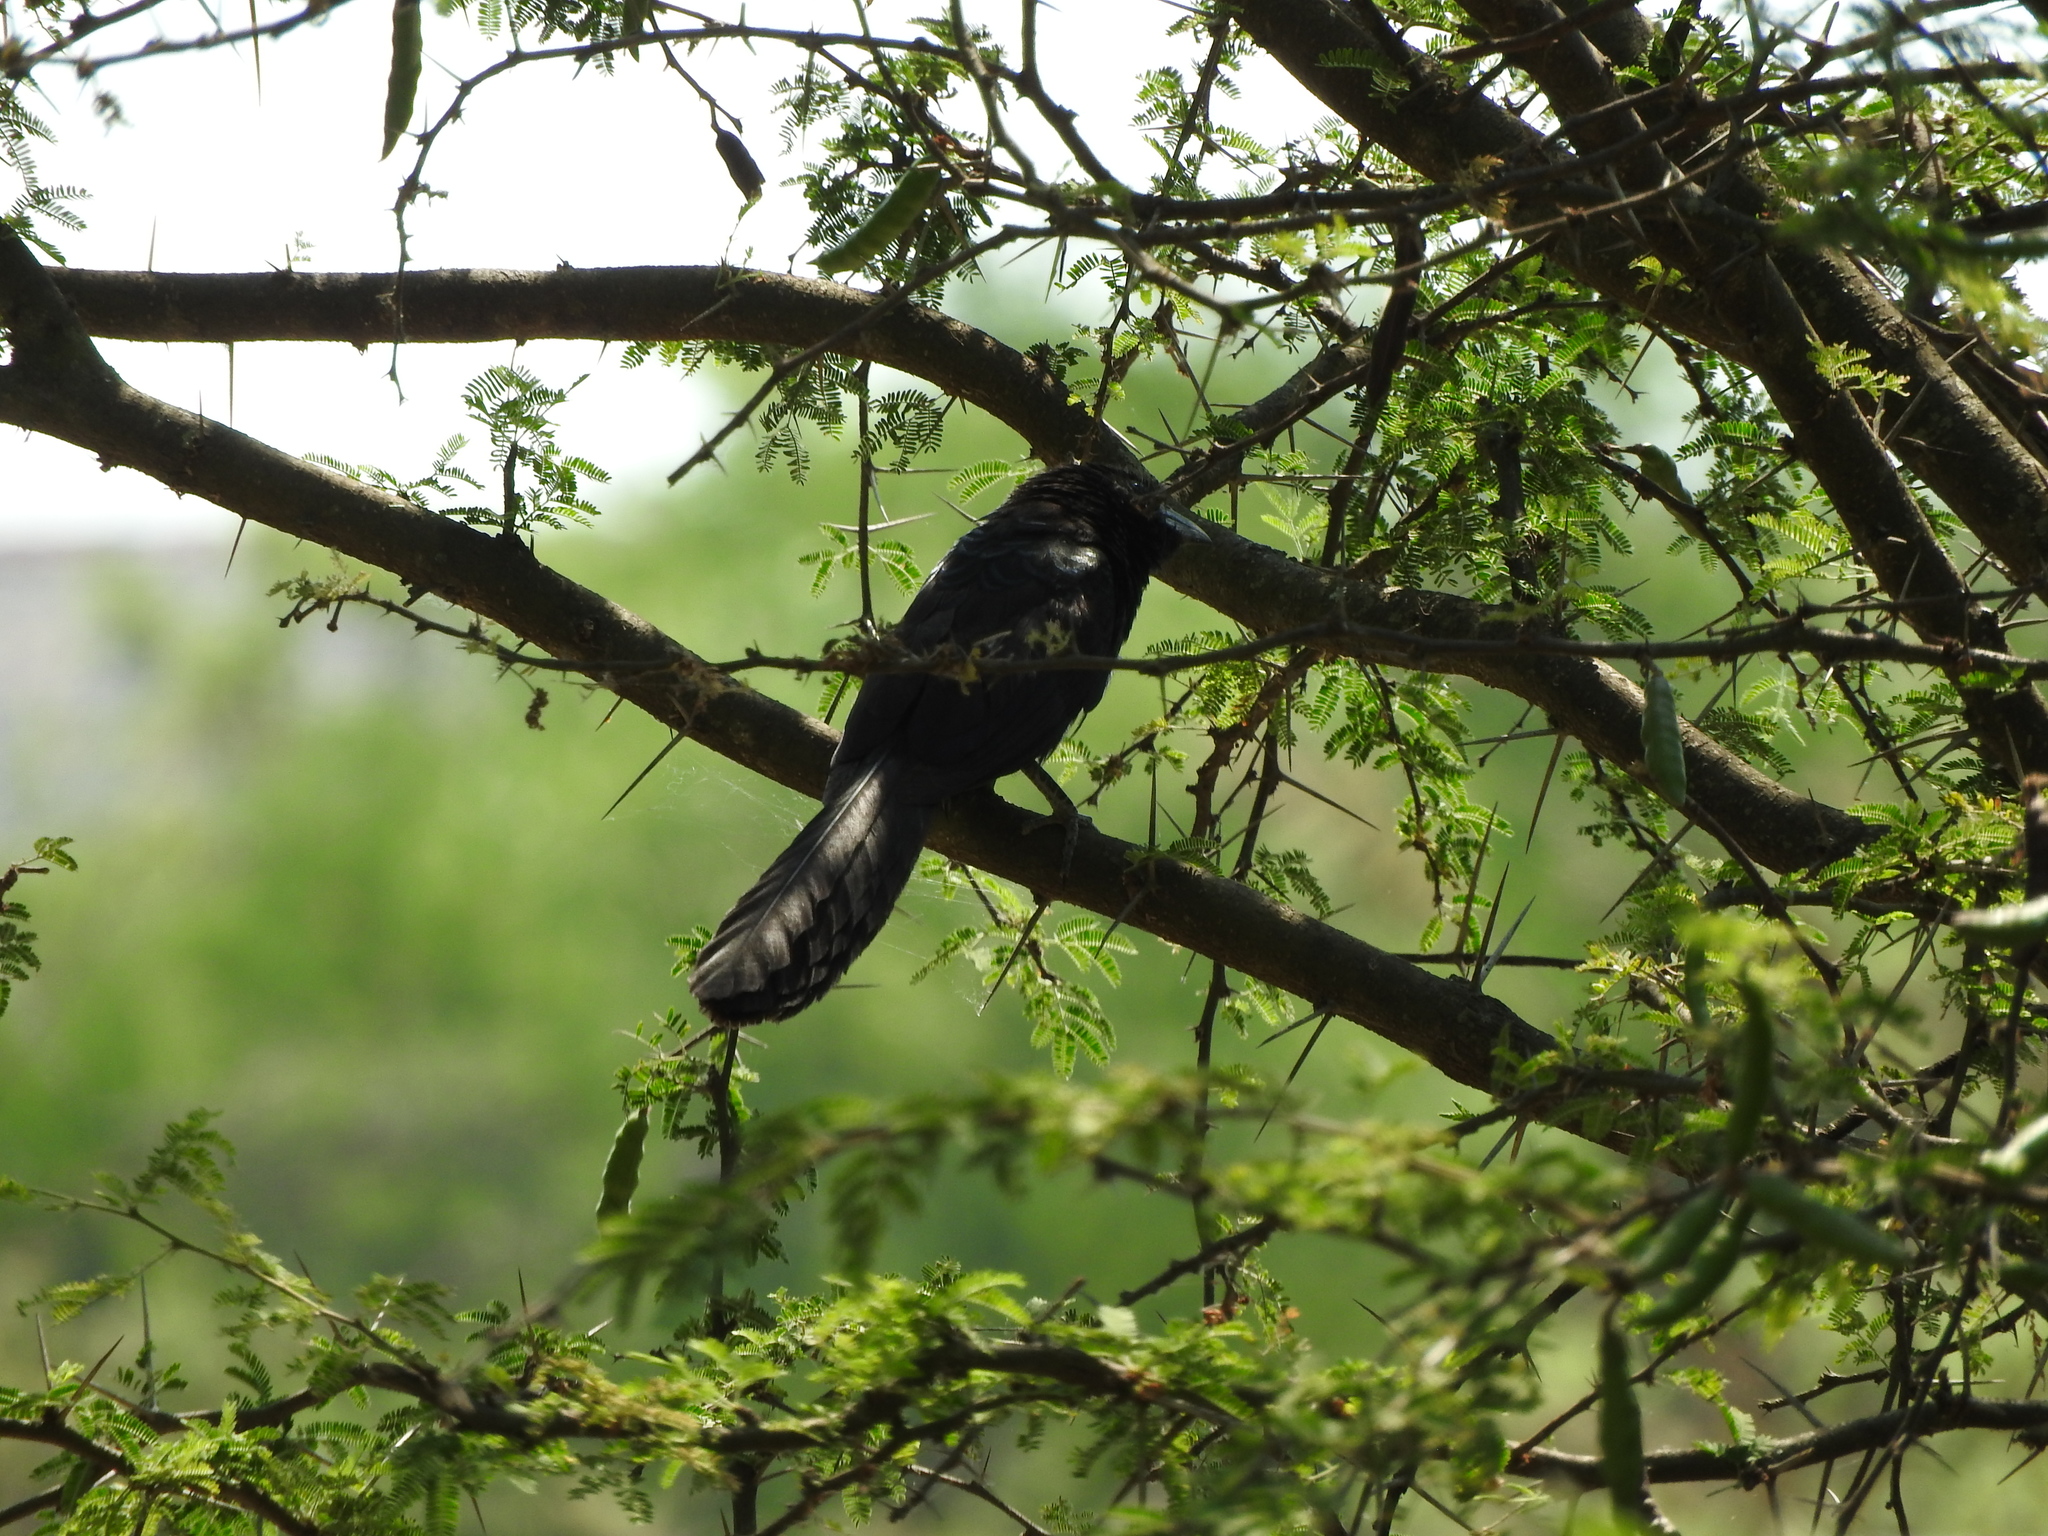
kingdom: Animalia
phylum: Chordata
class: Aves
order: Cuculiformes
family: Cuculidae
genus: Crotophaga
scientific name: Crotophaga sulcirostris
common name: Groove-billed ani
